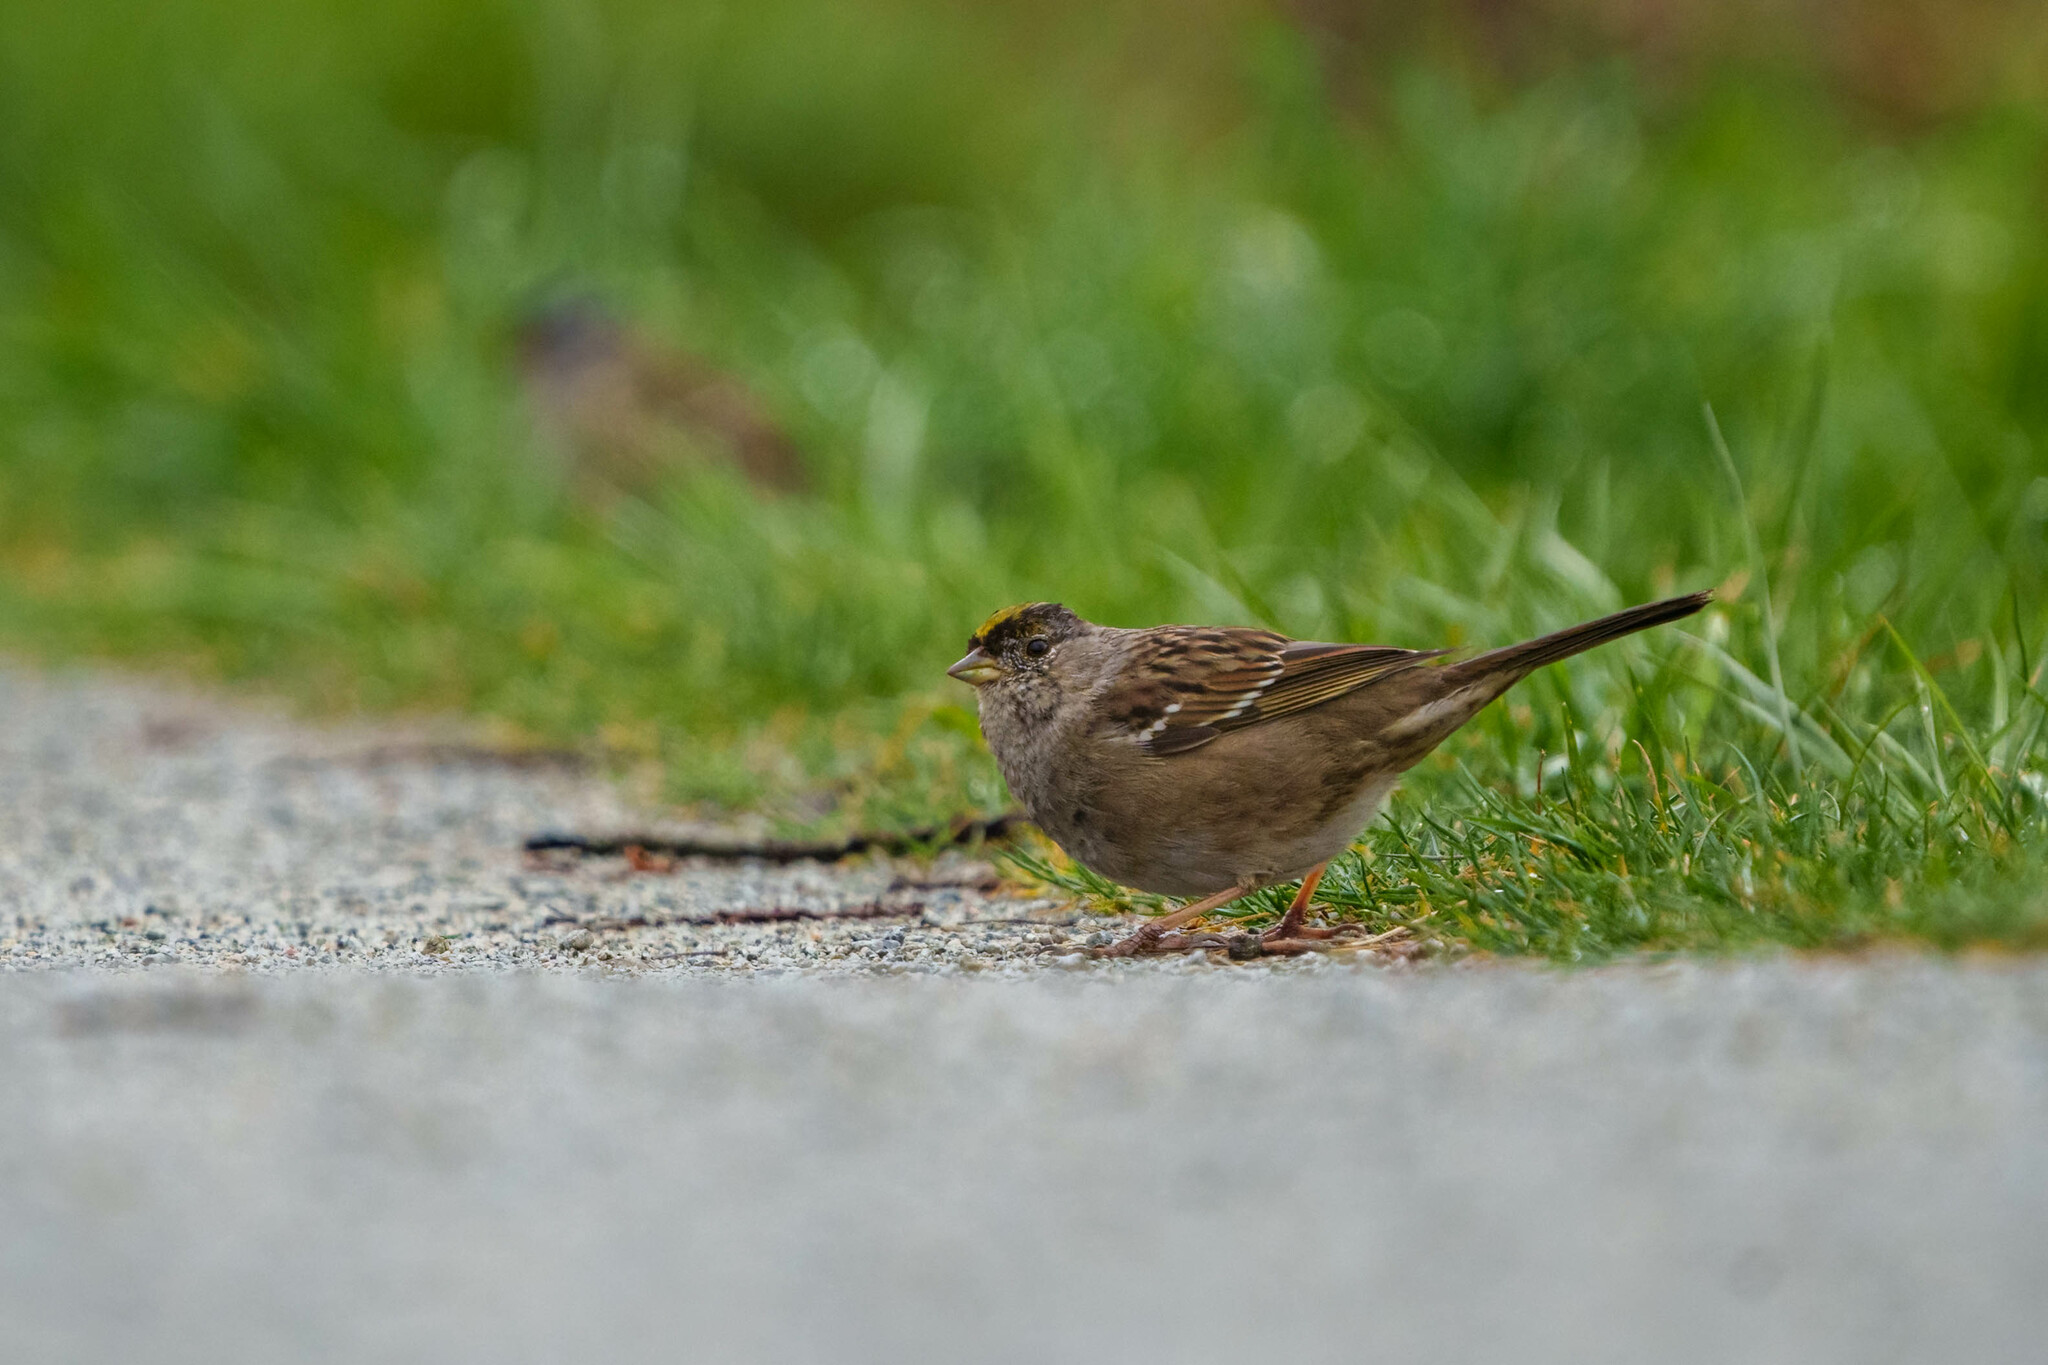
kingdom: Animalia
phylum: Chordata
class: Aves
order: Passeriformes
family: Passerellidae
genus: Zonotrichia
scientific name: Zonotrichia atricapilla
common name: Golden-crowned sparrow
